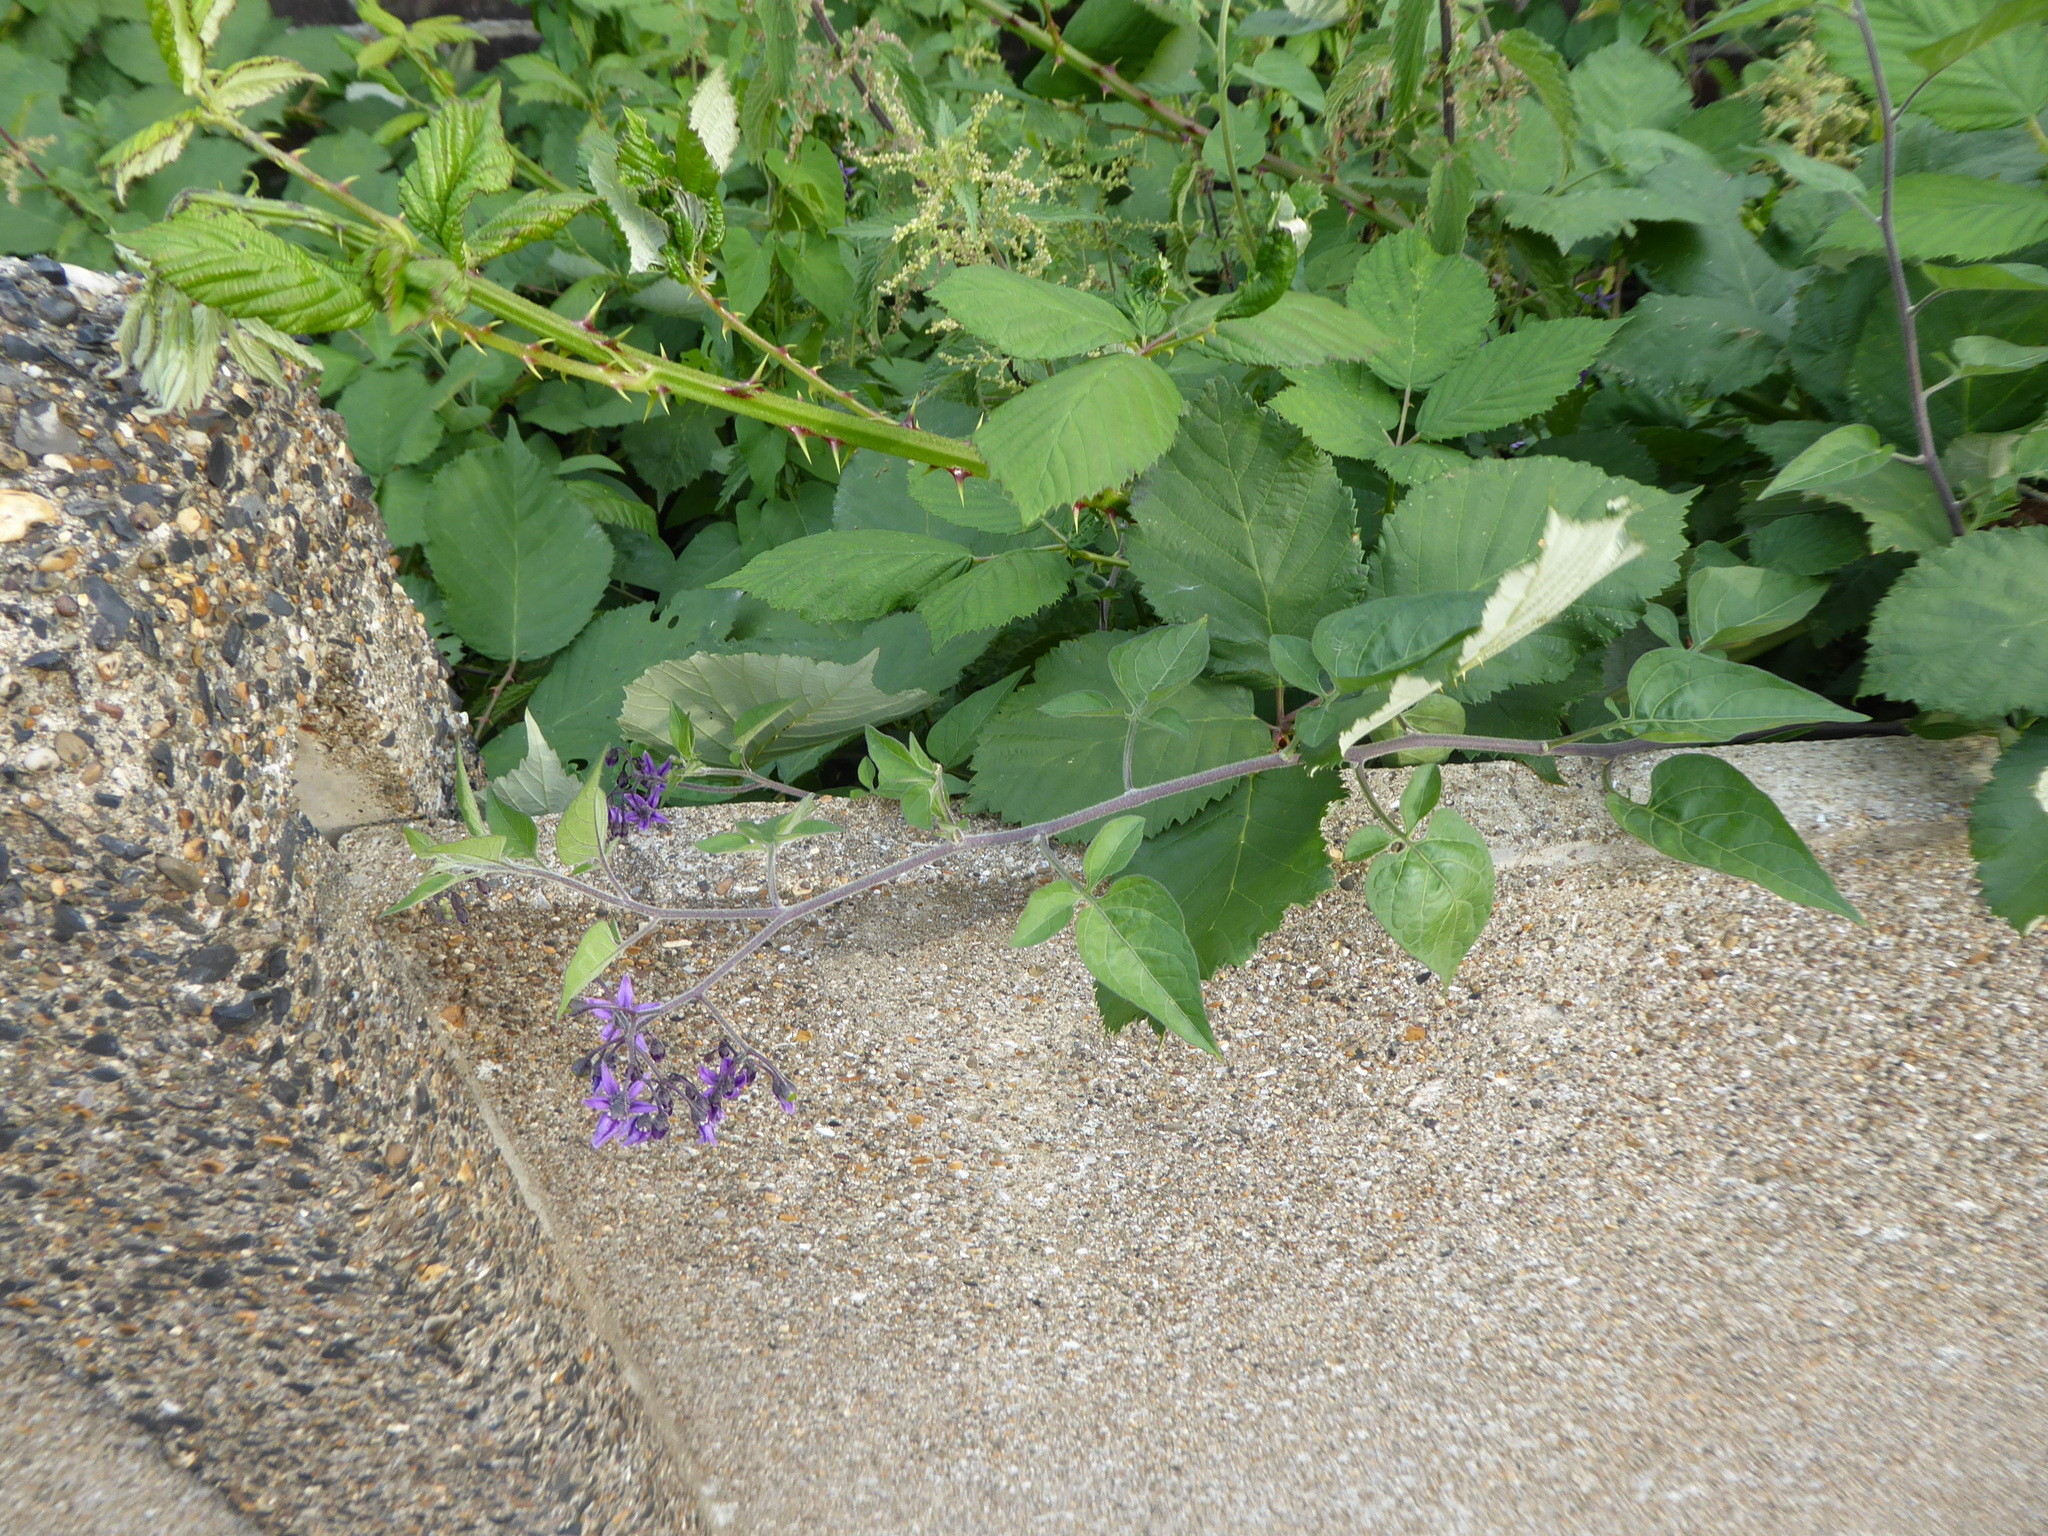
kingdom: Plantae
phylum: Tracheophyta
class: Magnoliopsida
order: Solanales
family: Solanaceae
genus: Solanum
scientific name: Solanum dulcamara
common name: Climbing nightshade
